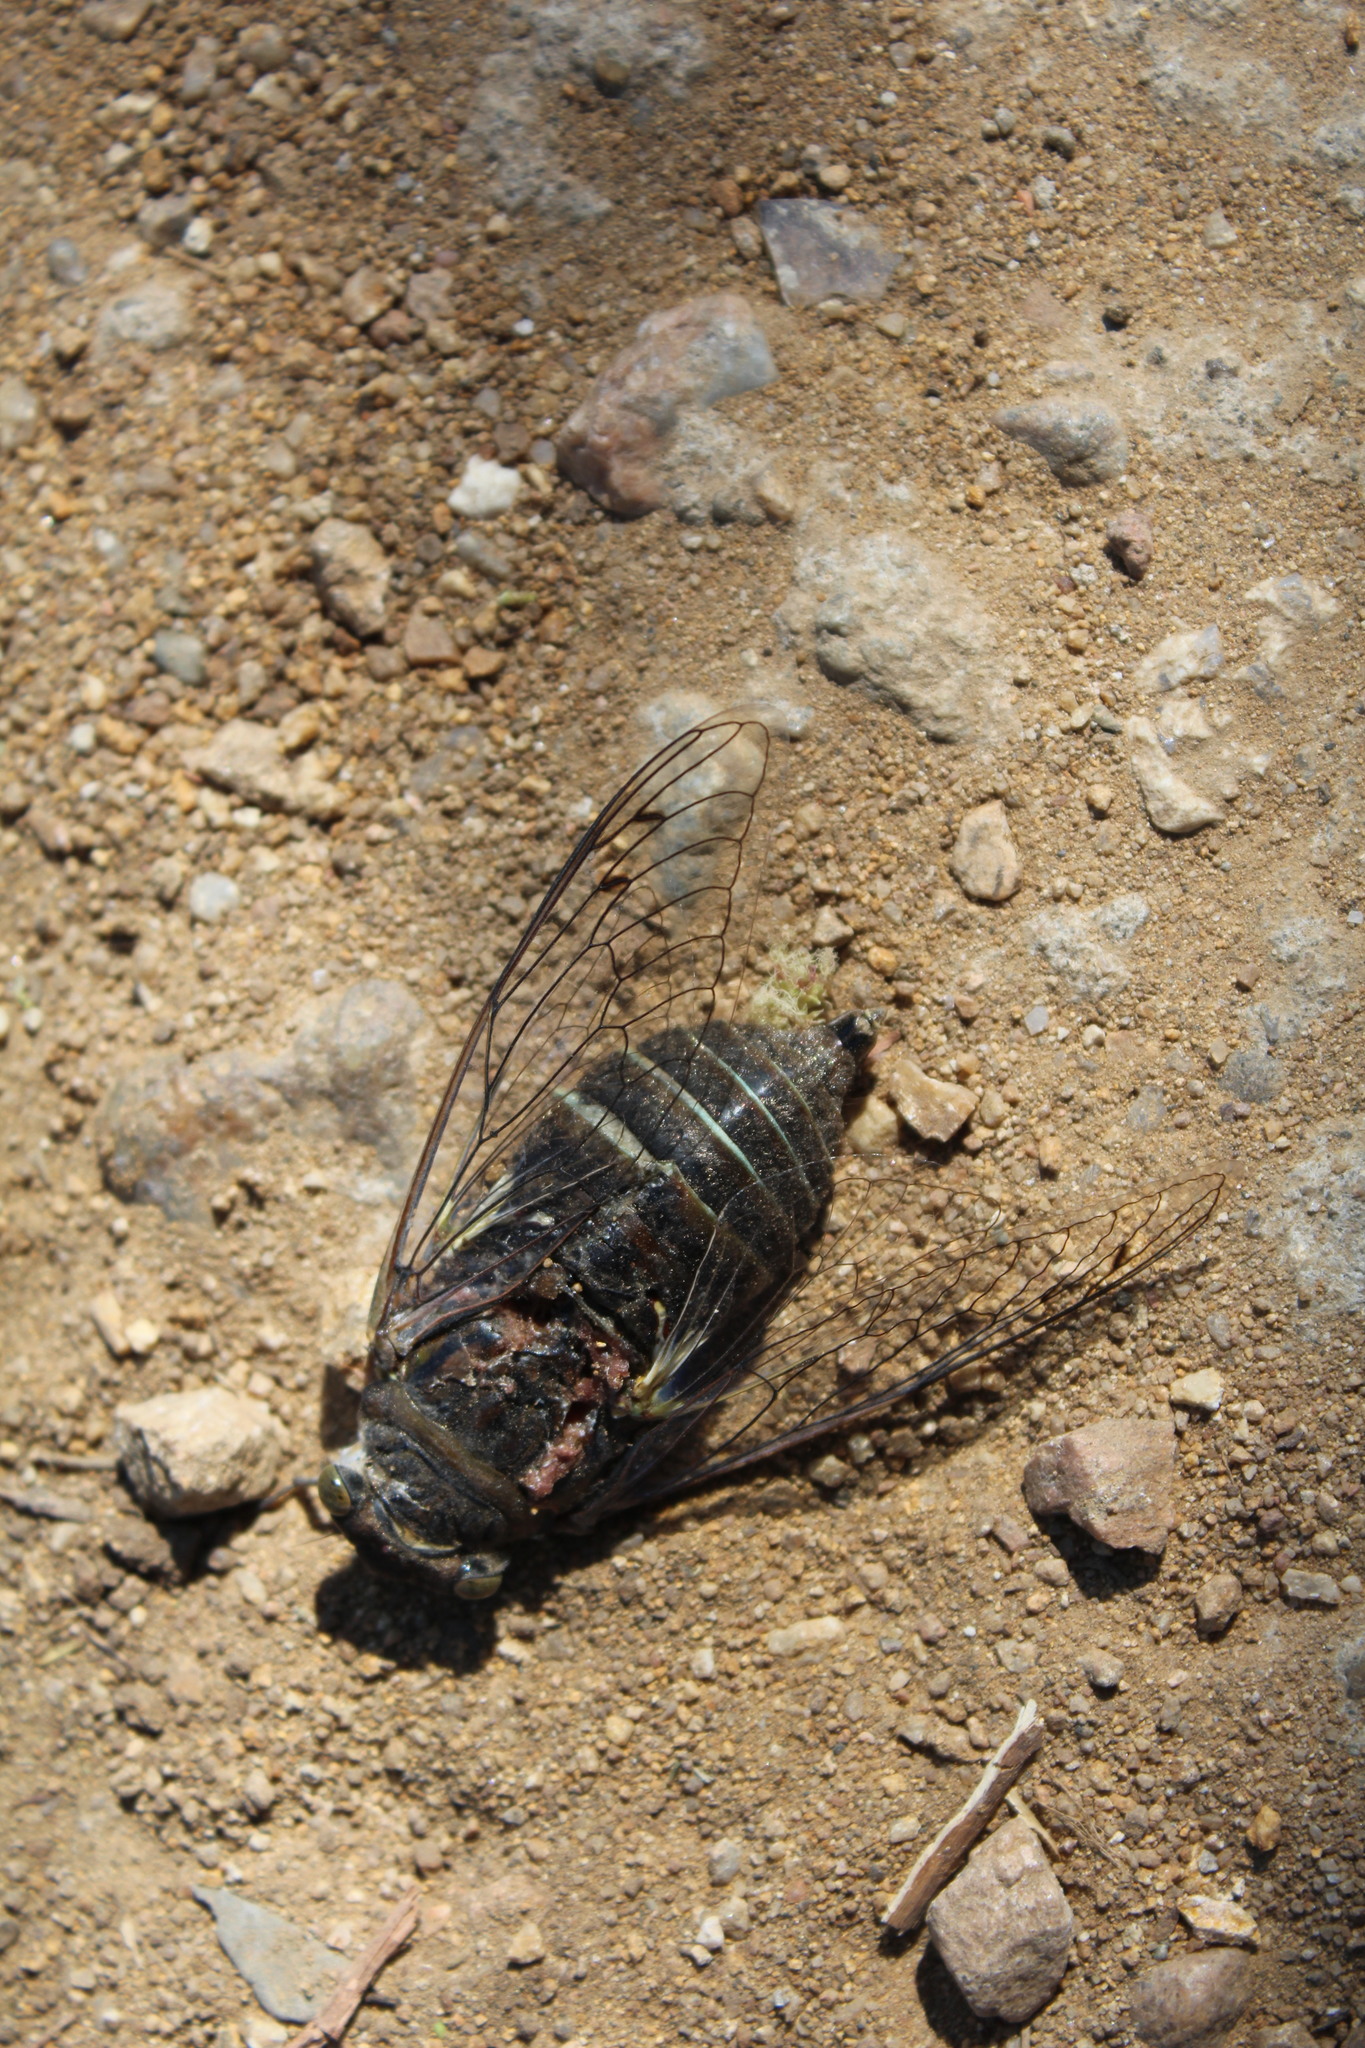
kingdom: Animalia
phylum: Arthropoda
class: Insecta
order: Hemiptera
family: Cicadidae
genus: Quesada
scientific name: Quesada gigas
